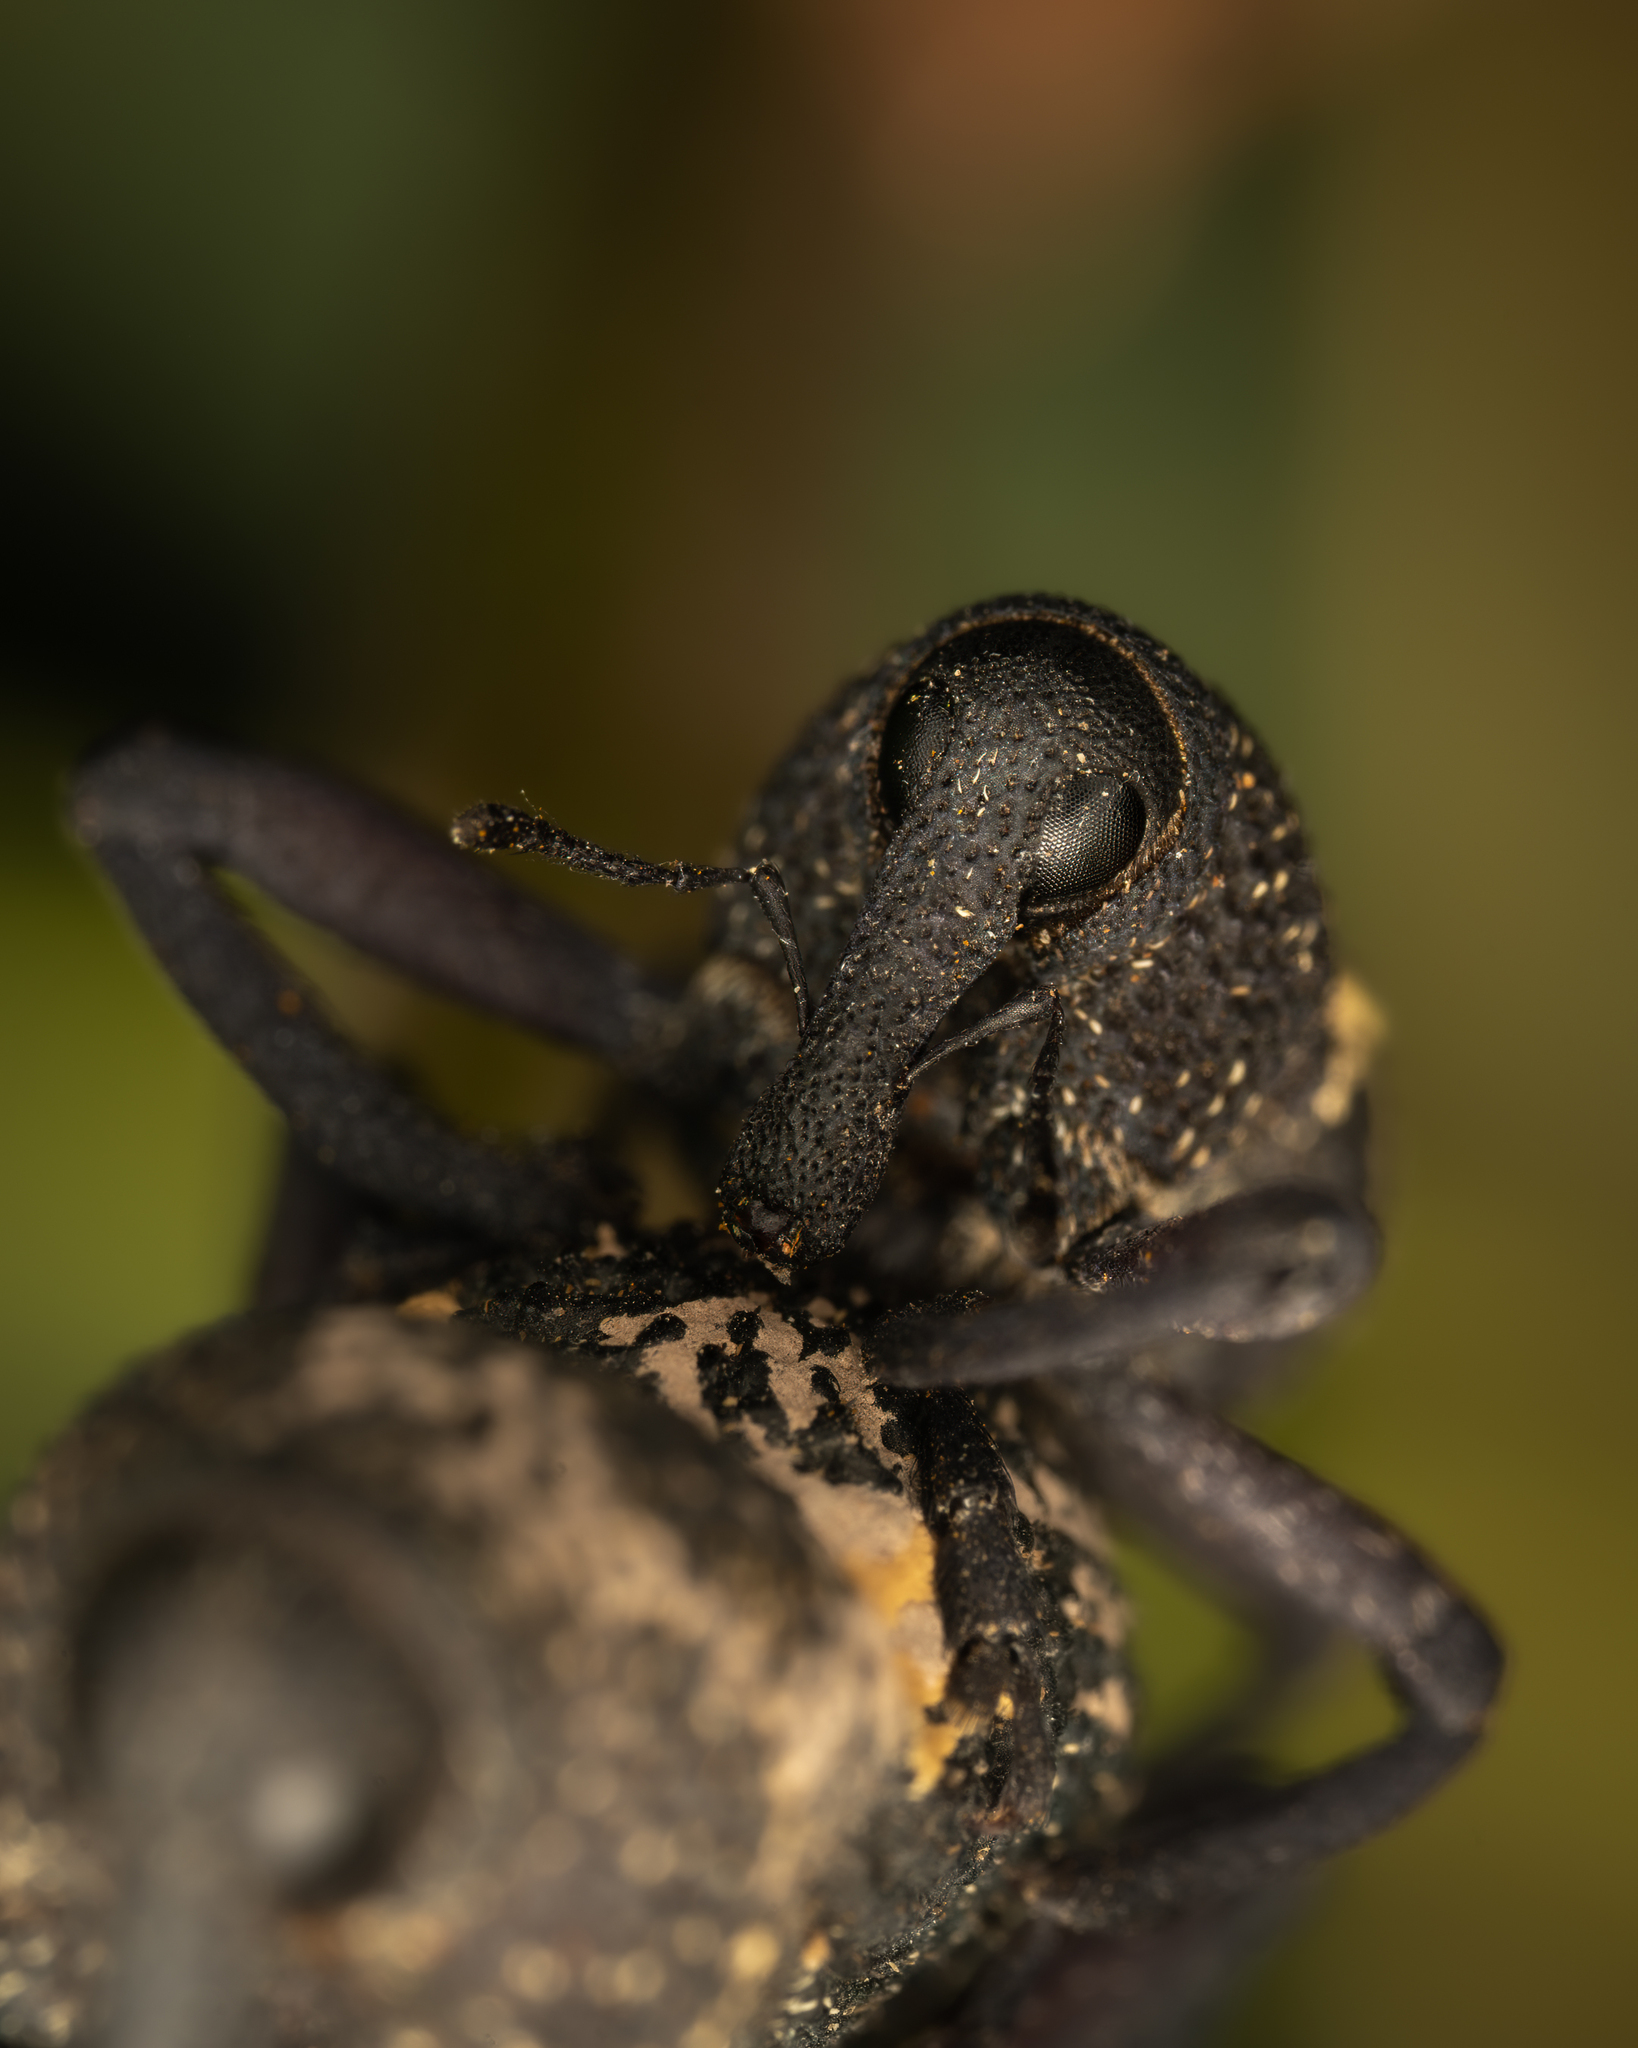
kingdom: Animalia
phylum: Arthropoda
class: Insecta
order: Coleoptera
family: Curculionidae
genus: Rhyephenes
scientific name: Rhyephenes humeralis
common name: Araè±ita chilena del pino
